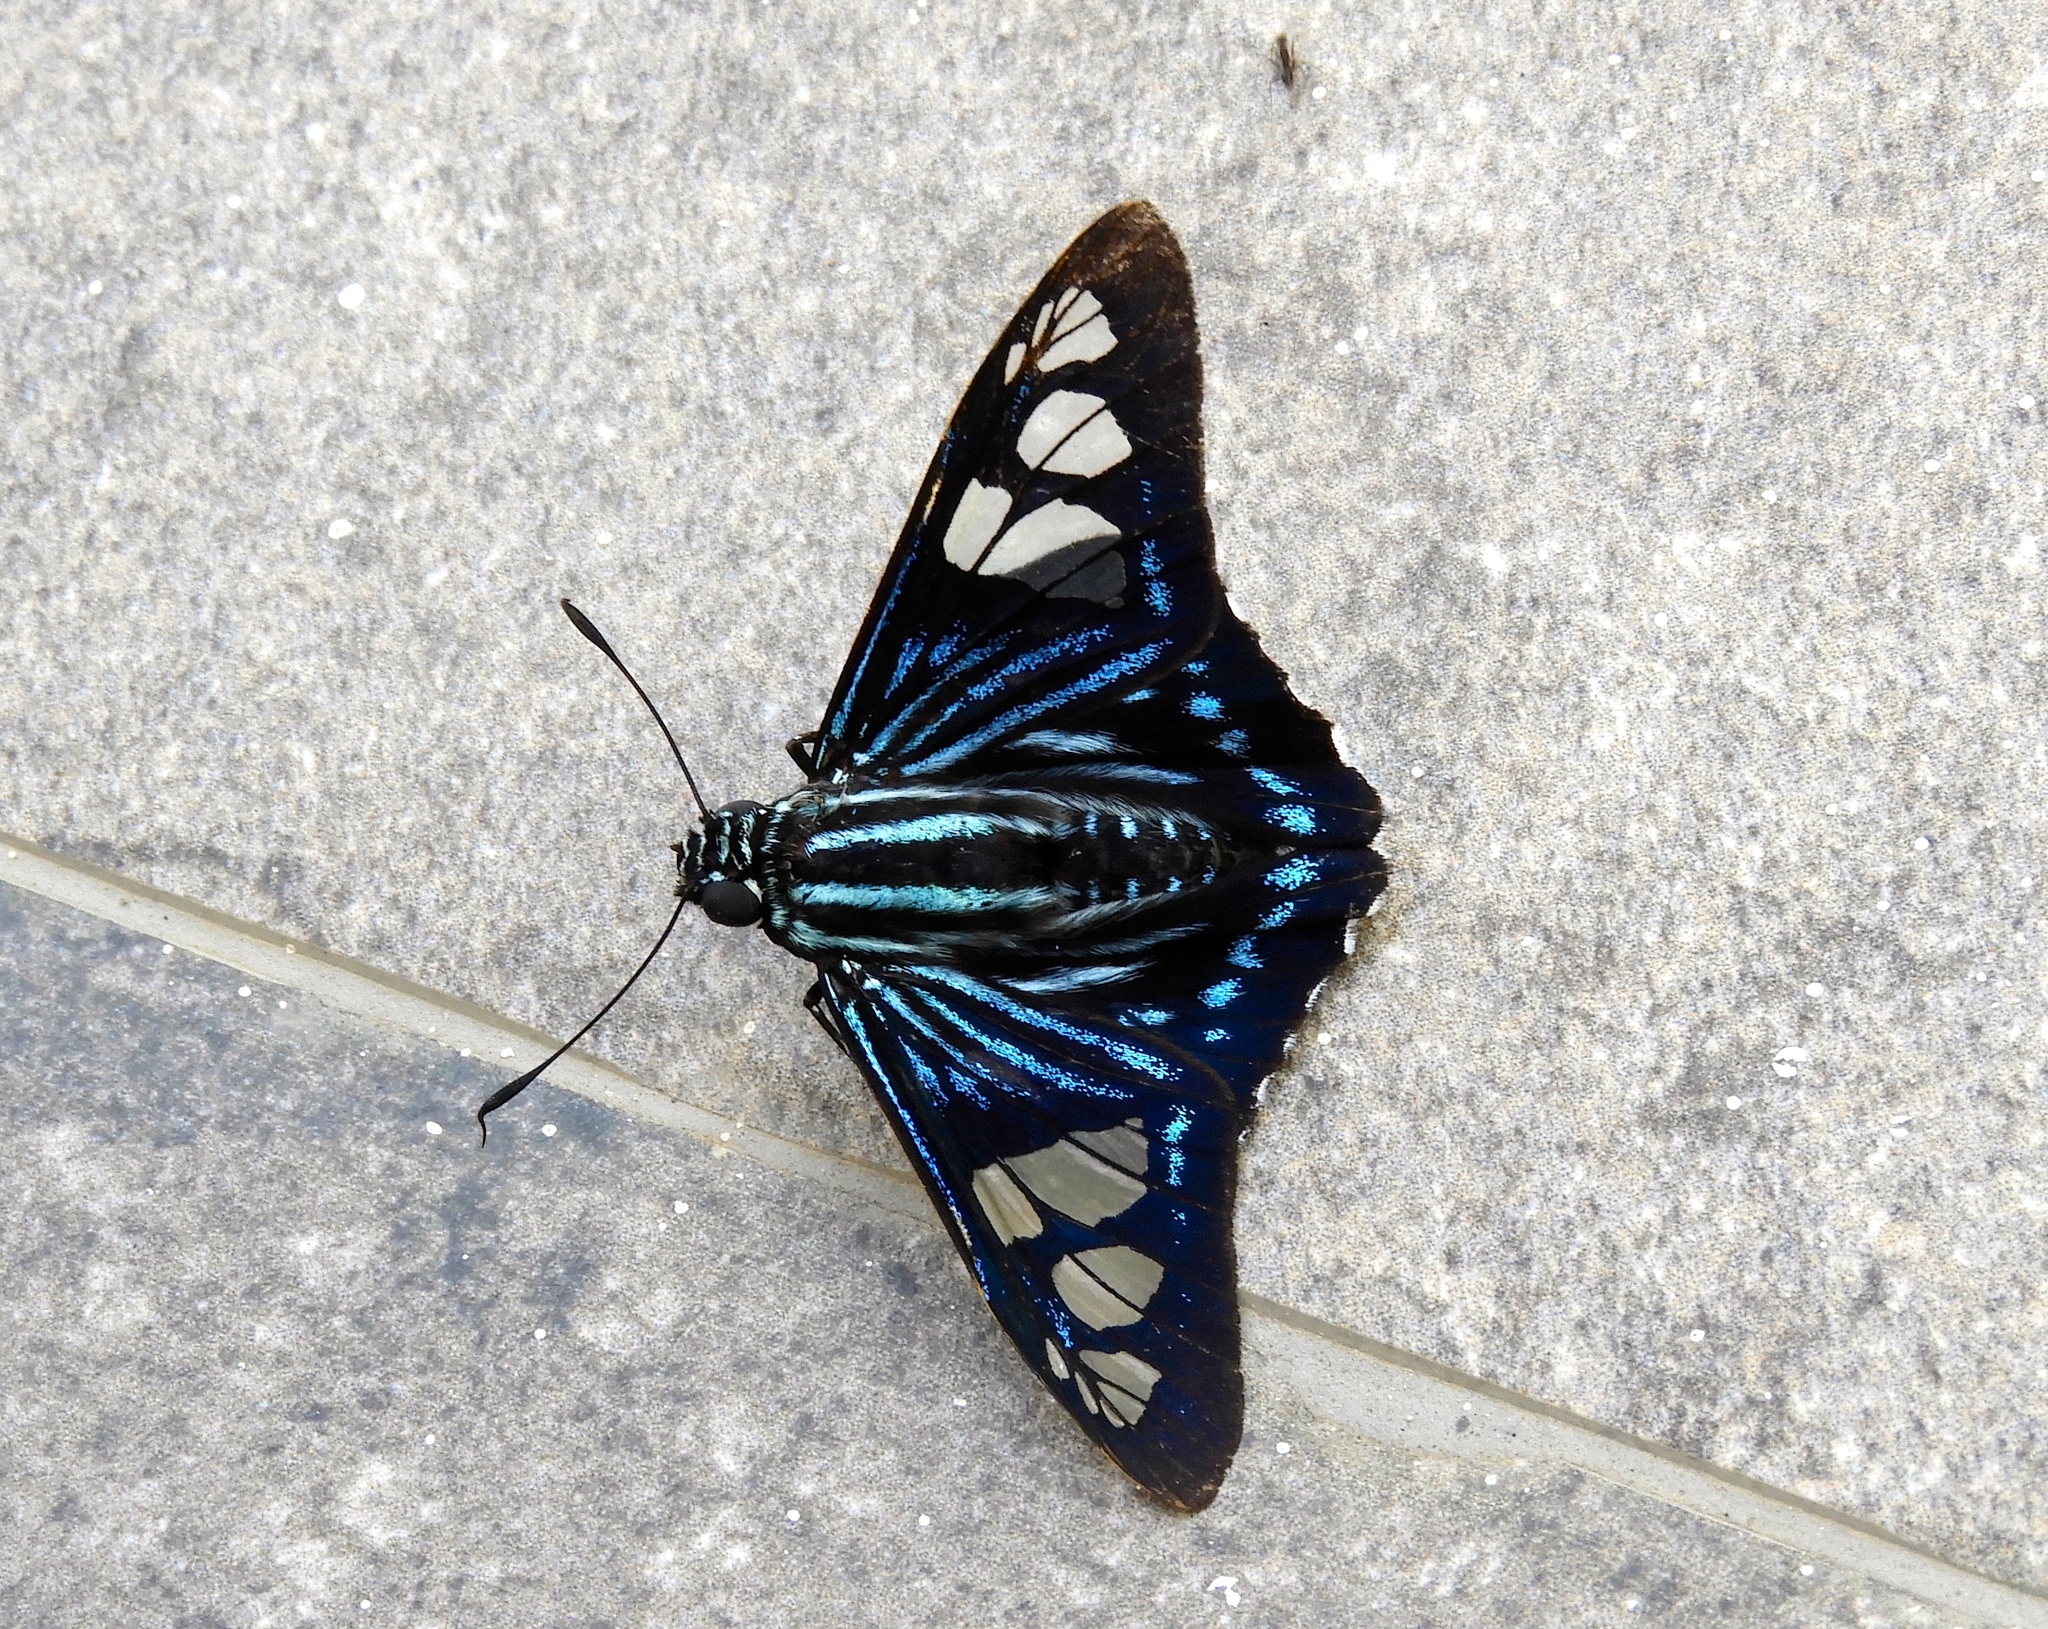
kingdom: Animalia
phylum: Arthropoda
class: Insecta
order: Lepidoptera
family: Hesperiidae
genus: Phocides
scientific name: Phocides pigmalion
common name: Mangrove skipper
